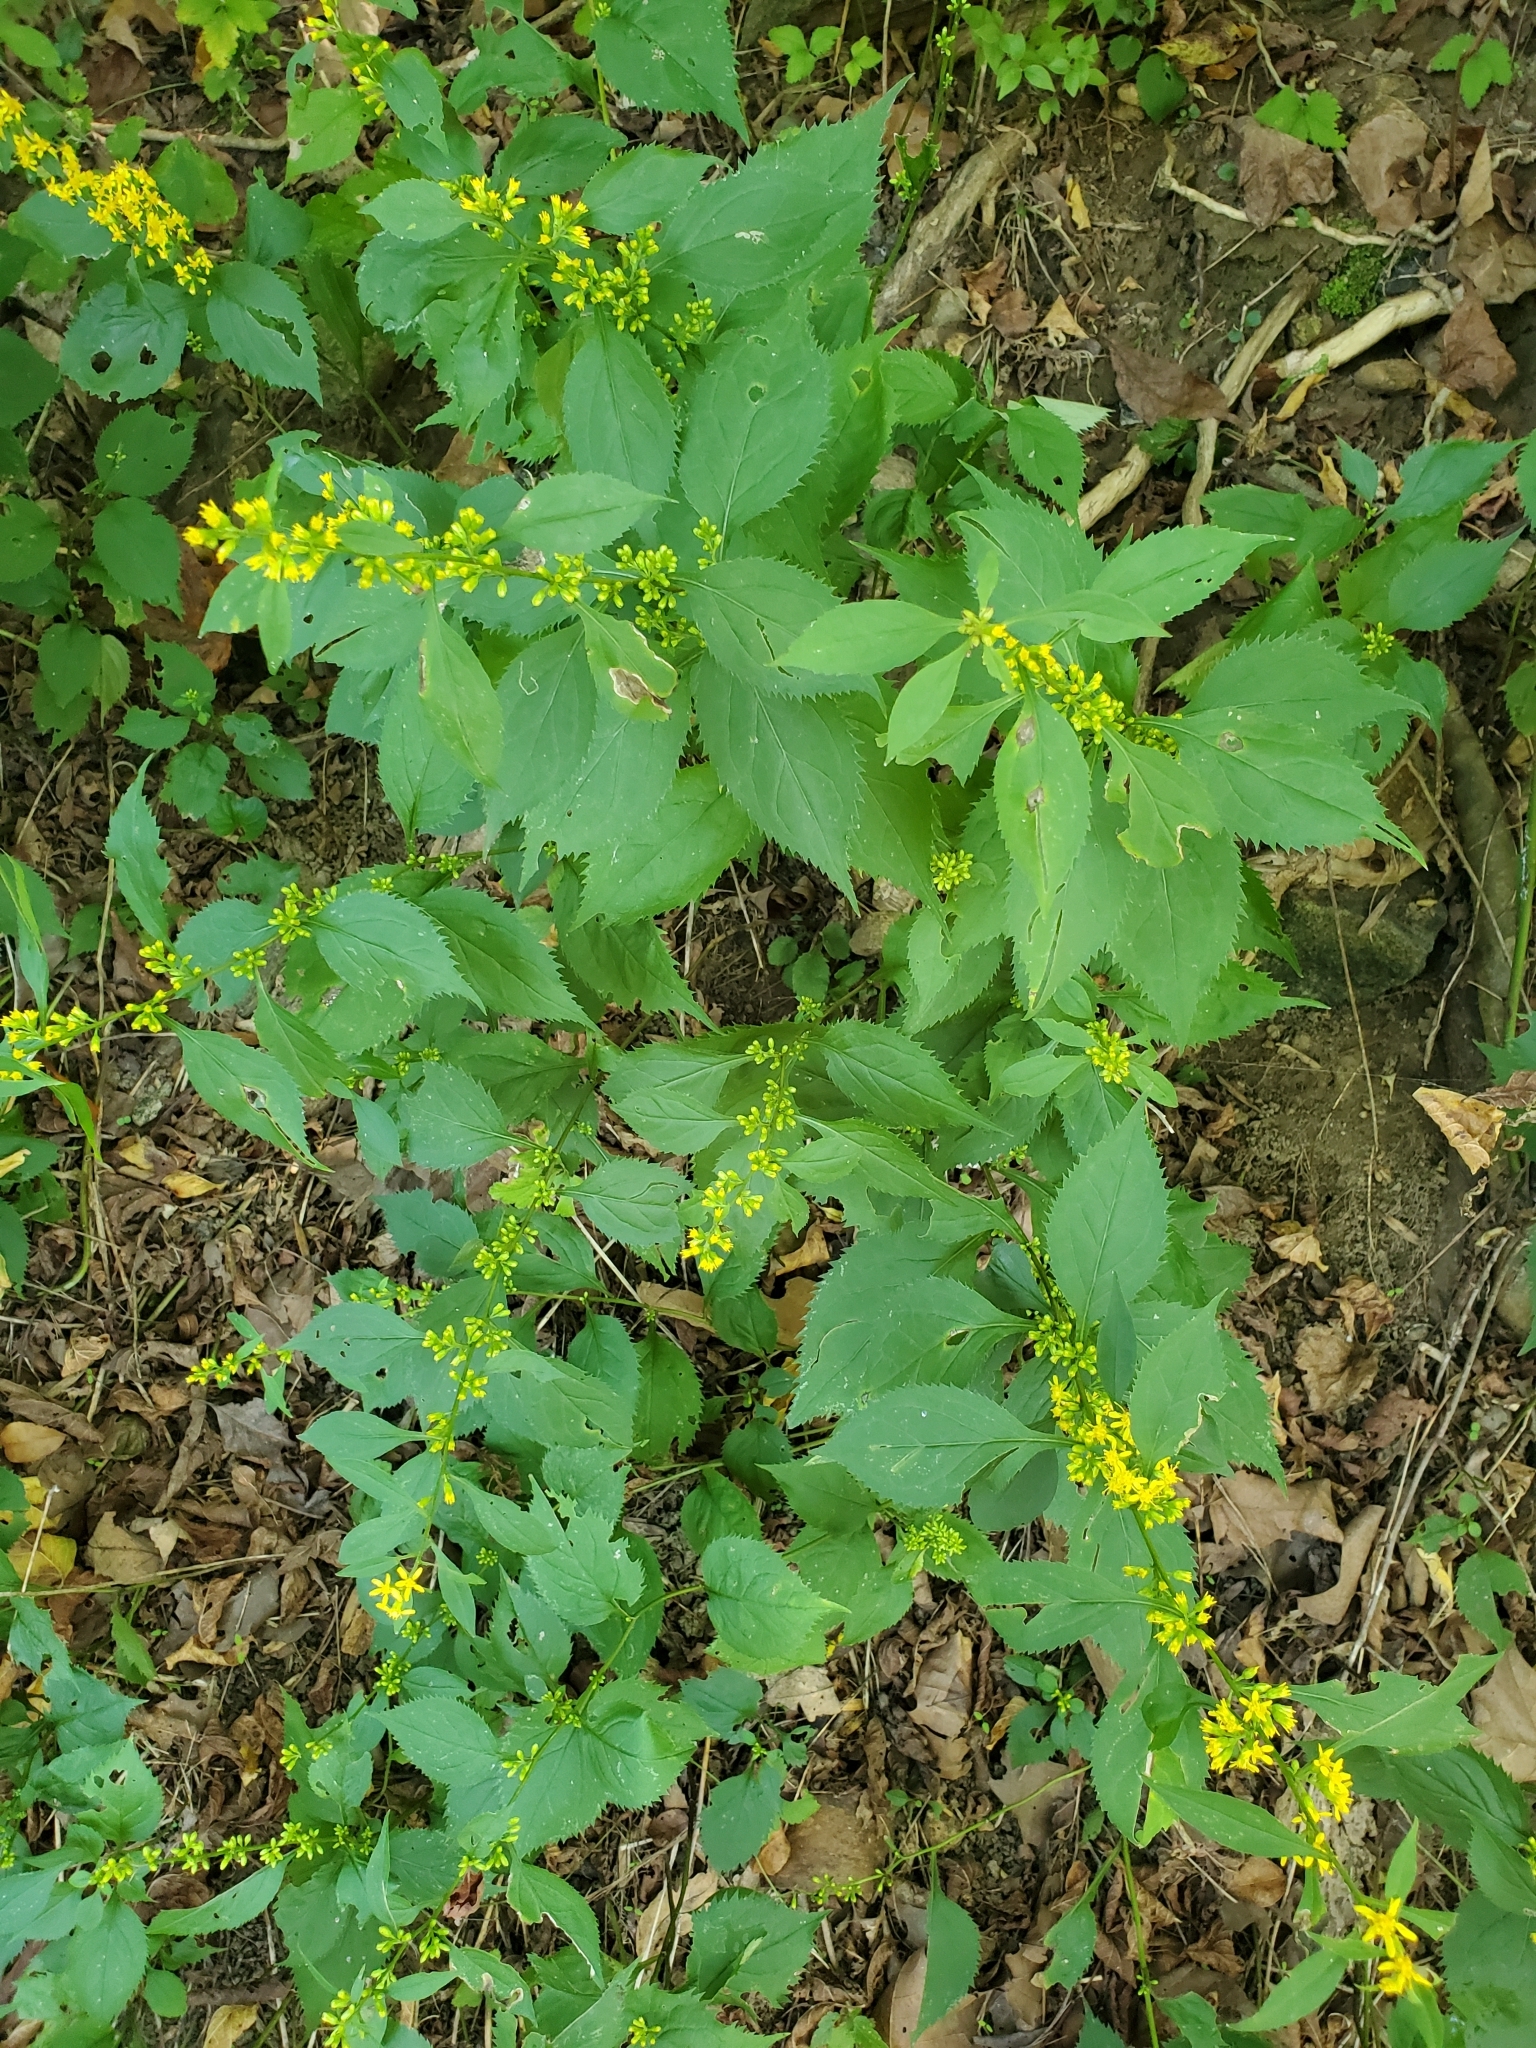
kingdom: Plantae
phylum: Tracheophyta
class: Magnoliopsida
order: Asterales
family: Asteraceae
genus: Solidago
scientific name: Solidago flexicaulis
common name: Zig-zag goldenrod
